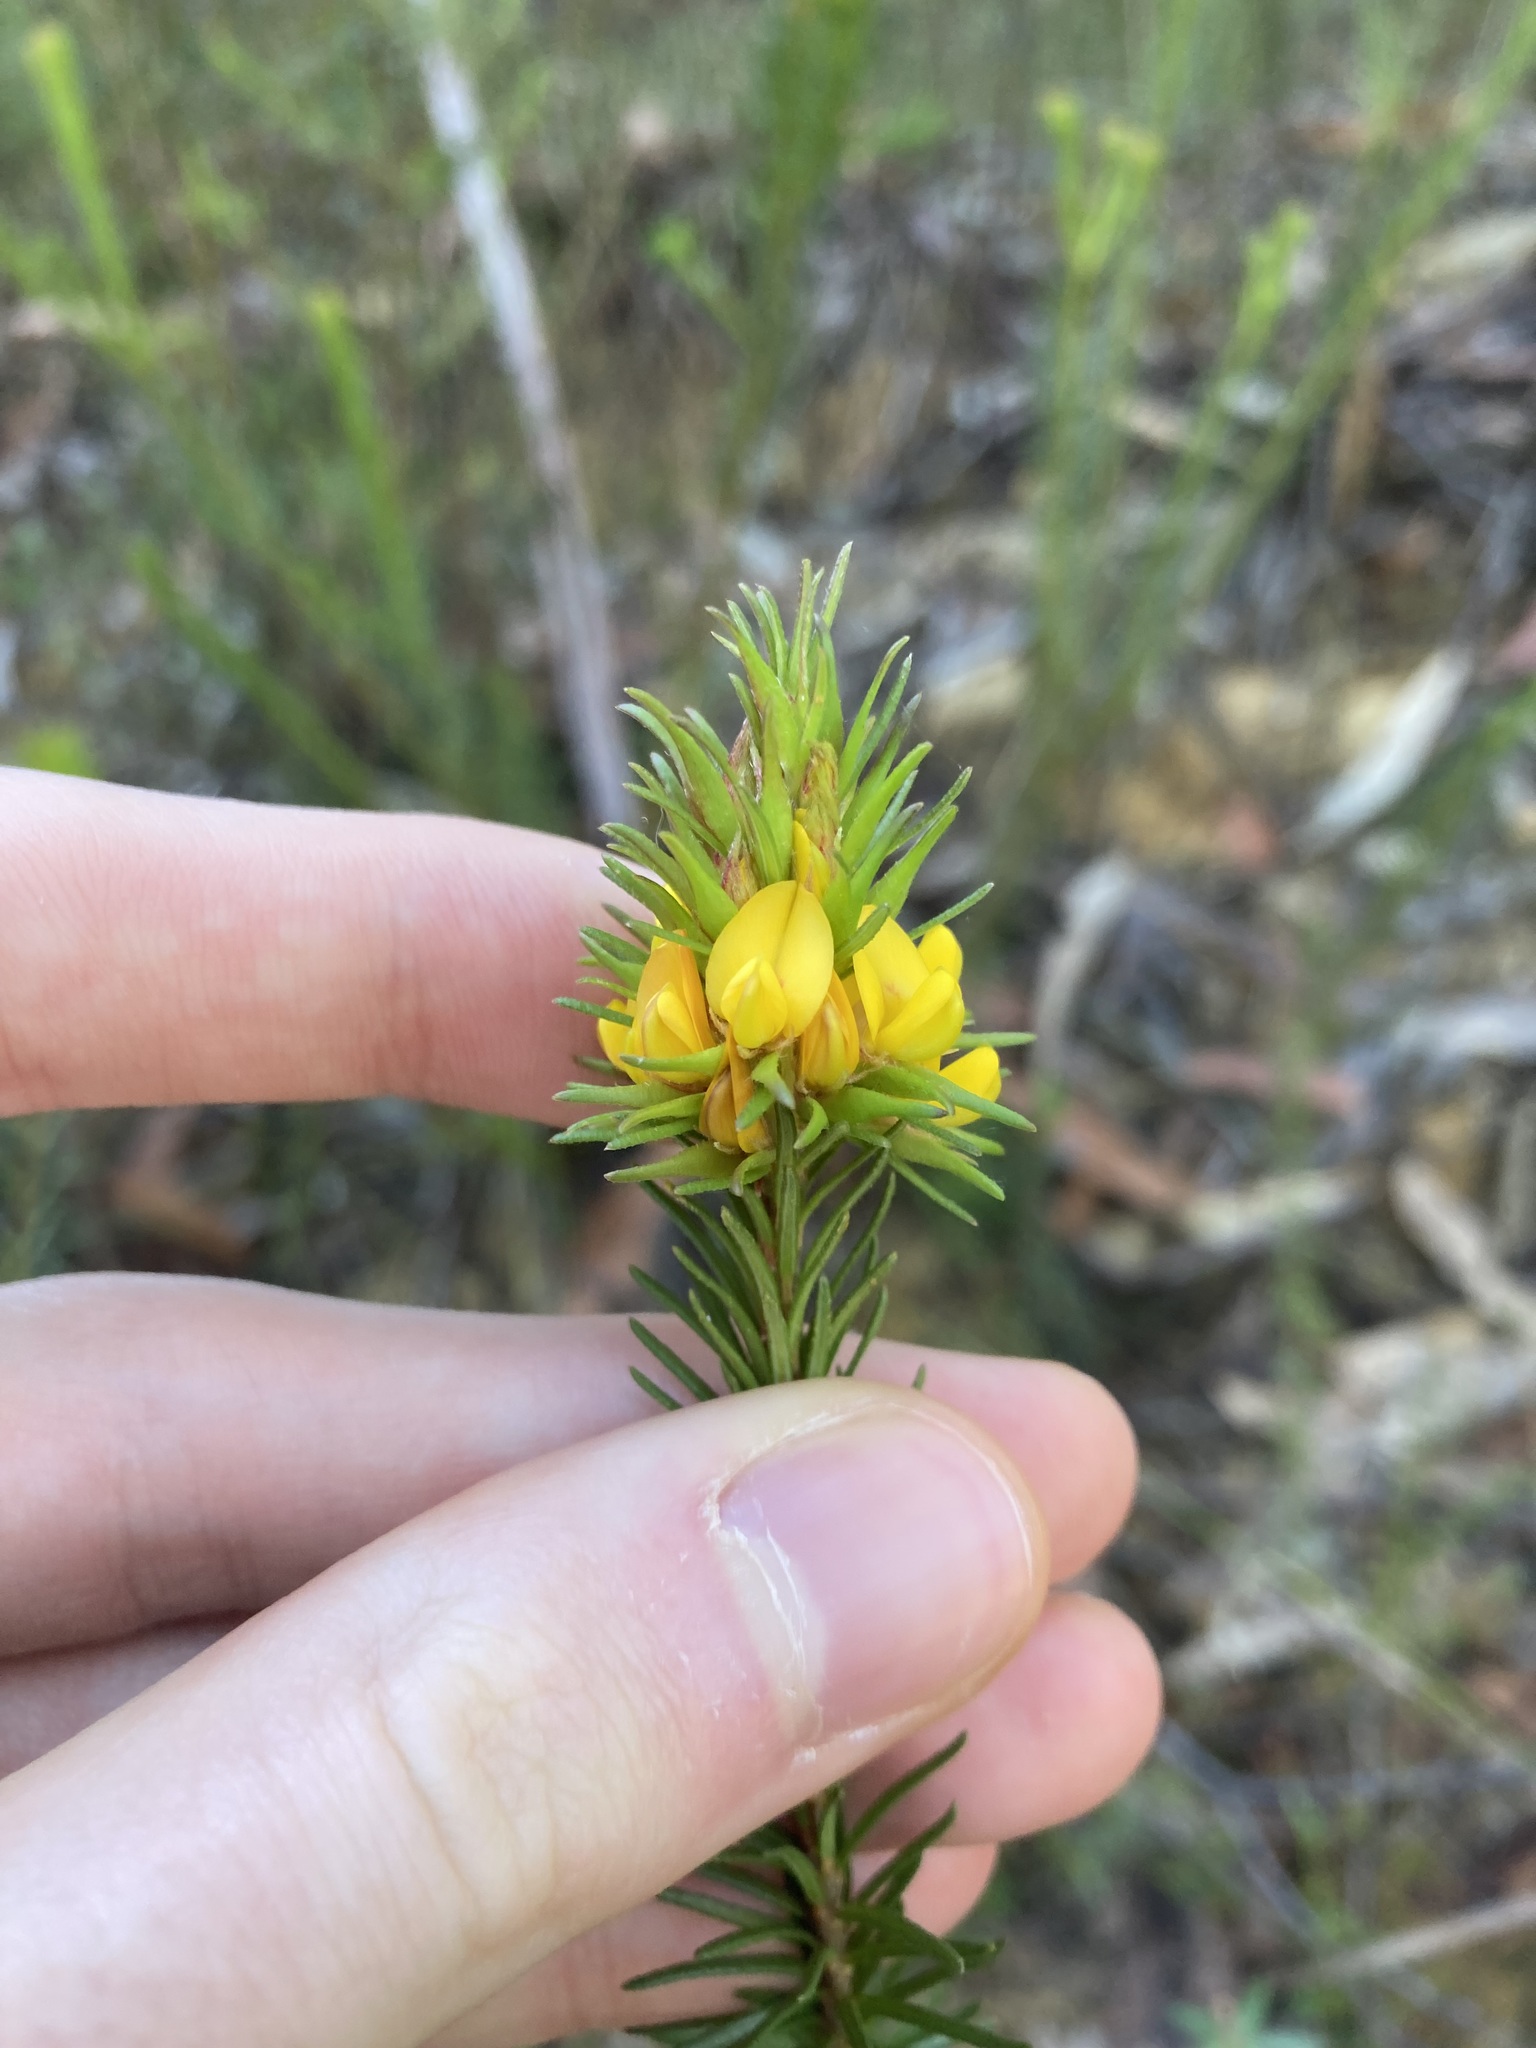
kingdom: Plantae
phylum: Tracheophyta
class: Magnoliopsida
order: Fabales
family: Fabaceae
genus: Phyllota
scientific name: Phyllota phylicoides
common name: Heath phyllota
